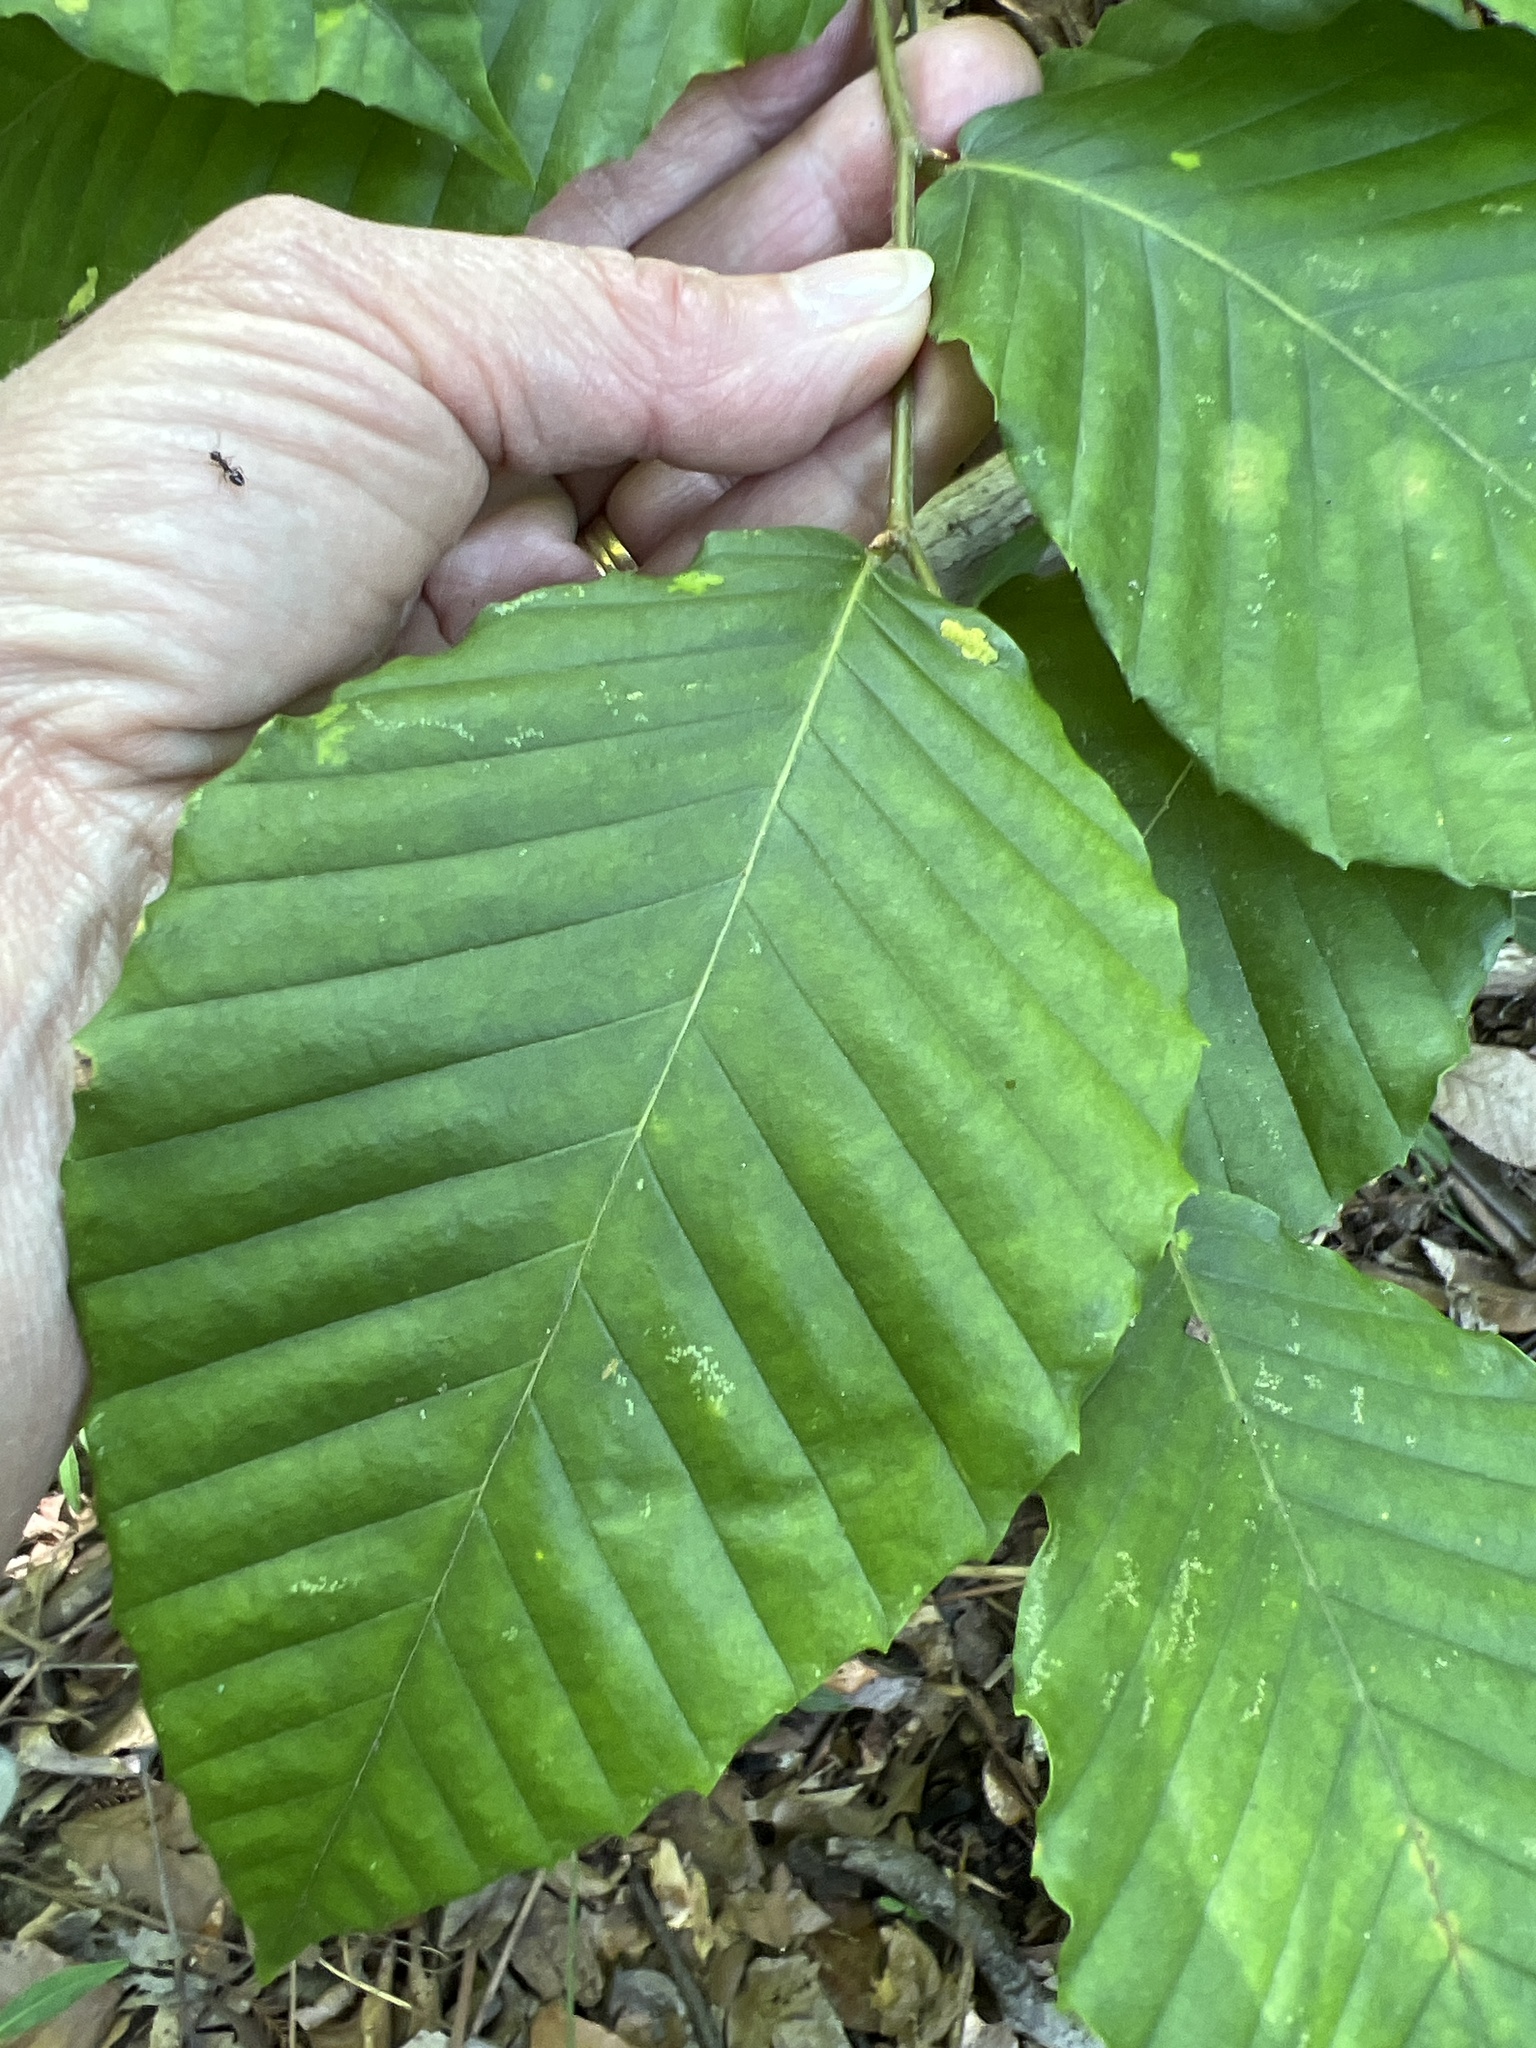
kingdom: Plantae
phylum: Tracheophyta
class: Magnoliopsida
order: Fagales
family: Fagaceae
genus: Fagus
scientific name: Fagus grandifolia
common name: American beech
